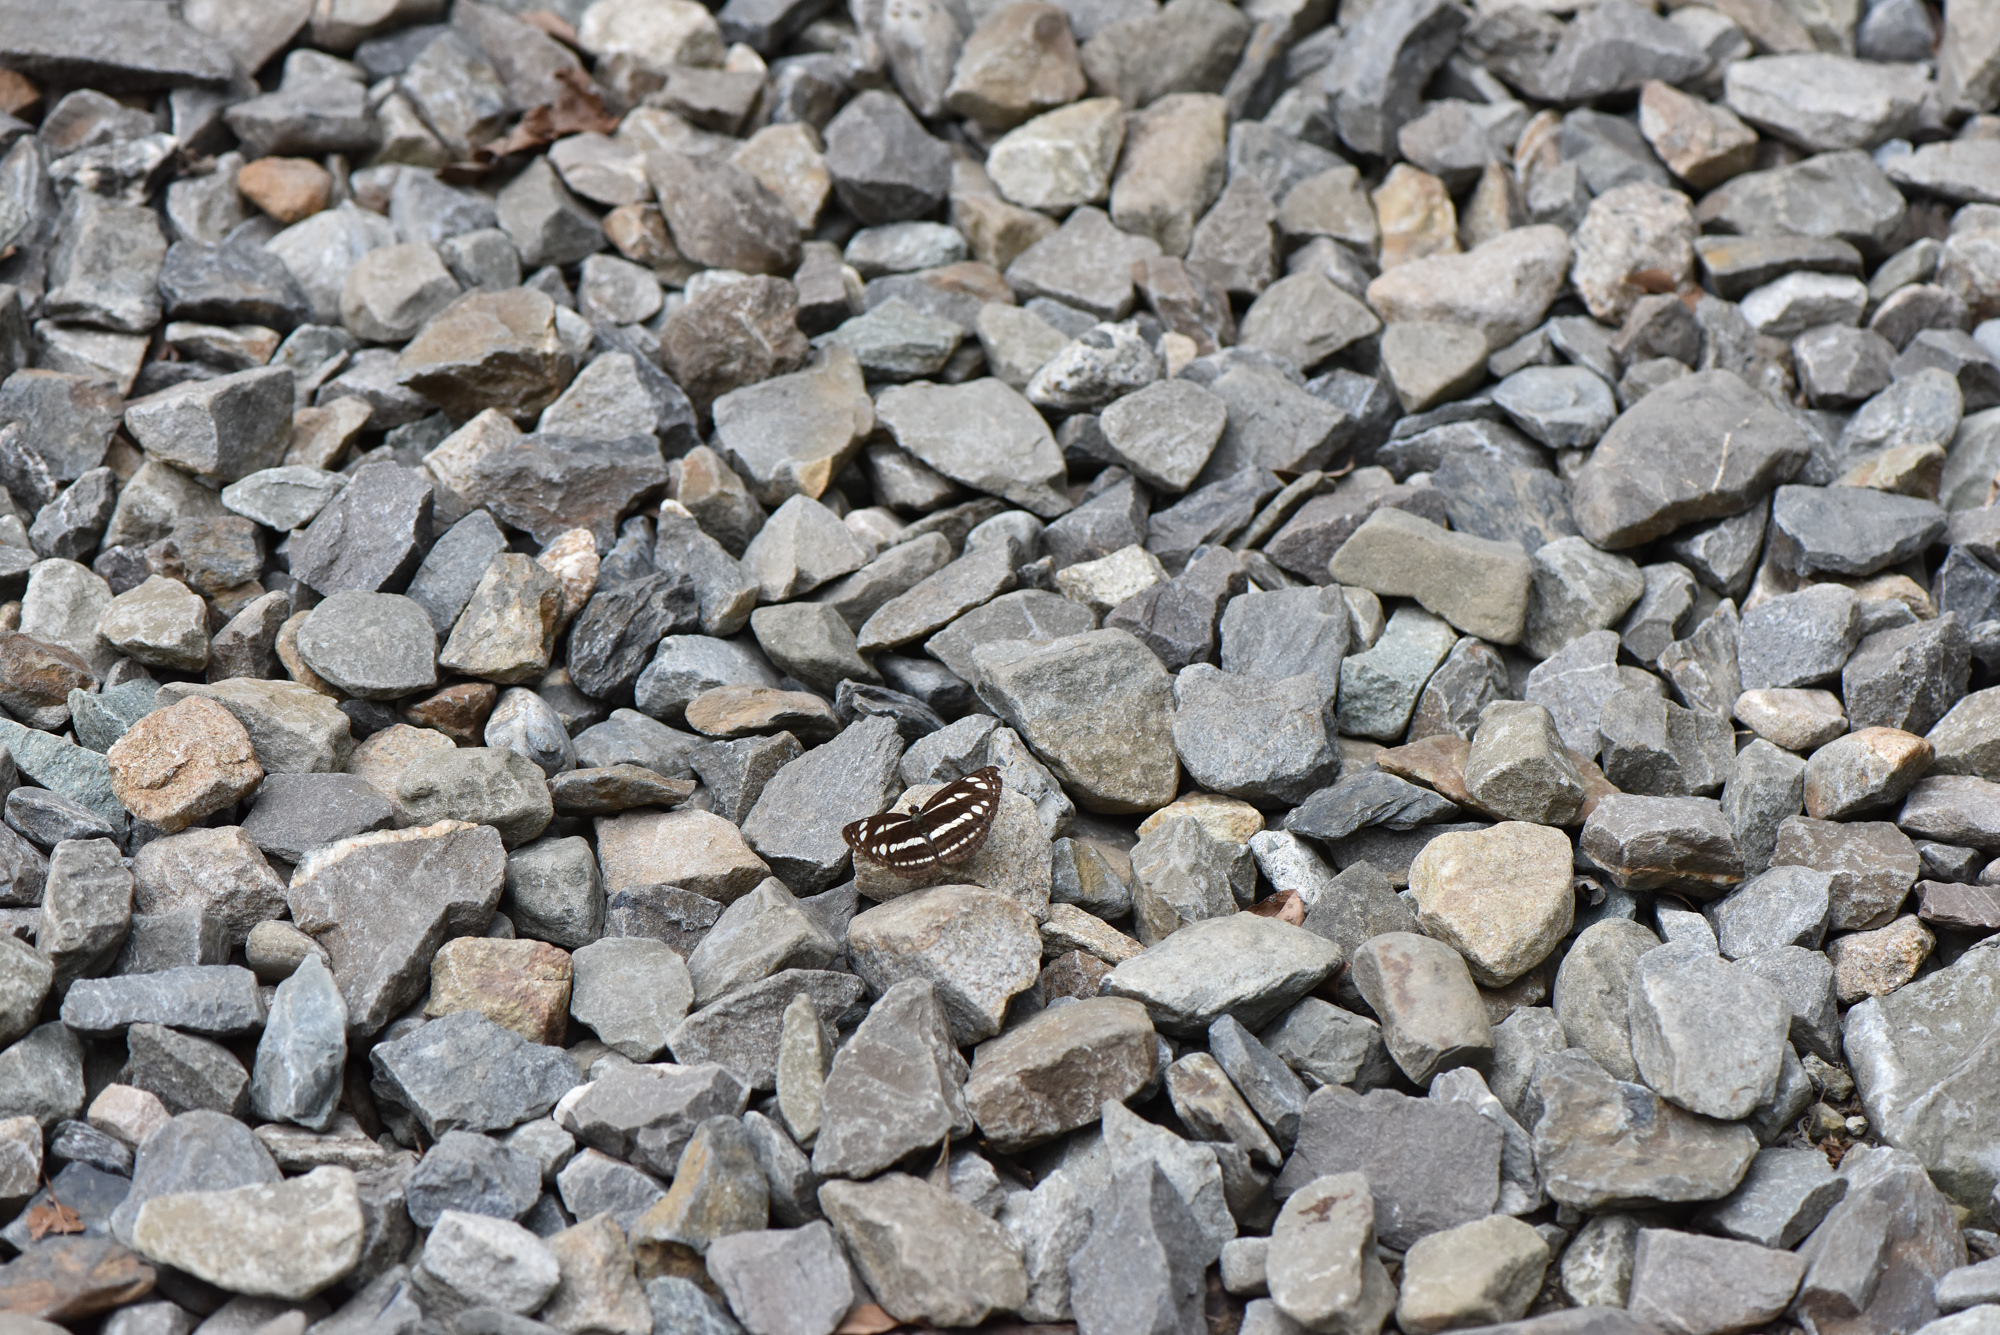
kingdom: Animalia
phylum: Arthropoda
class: Insecta
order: Lepidoptera
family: Nymphalidae
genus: Neptis
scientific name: Neptis nata
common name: Sullied brown sailer
